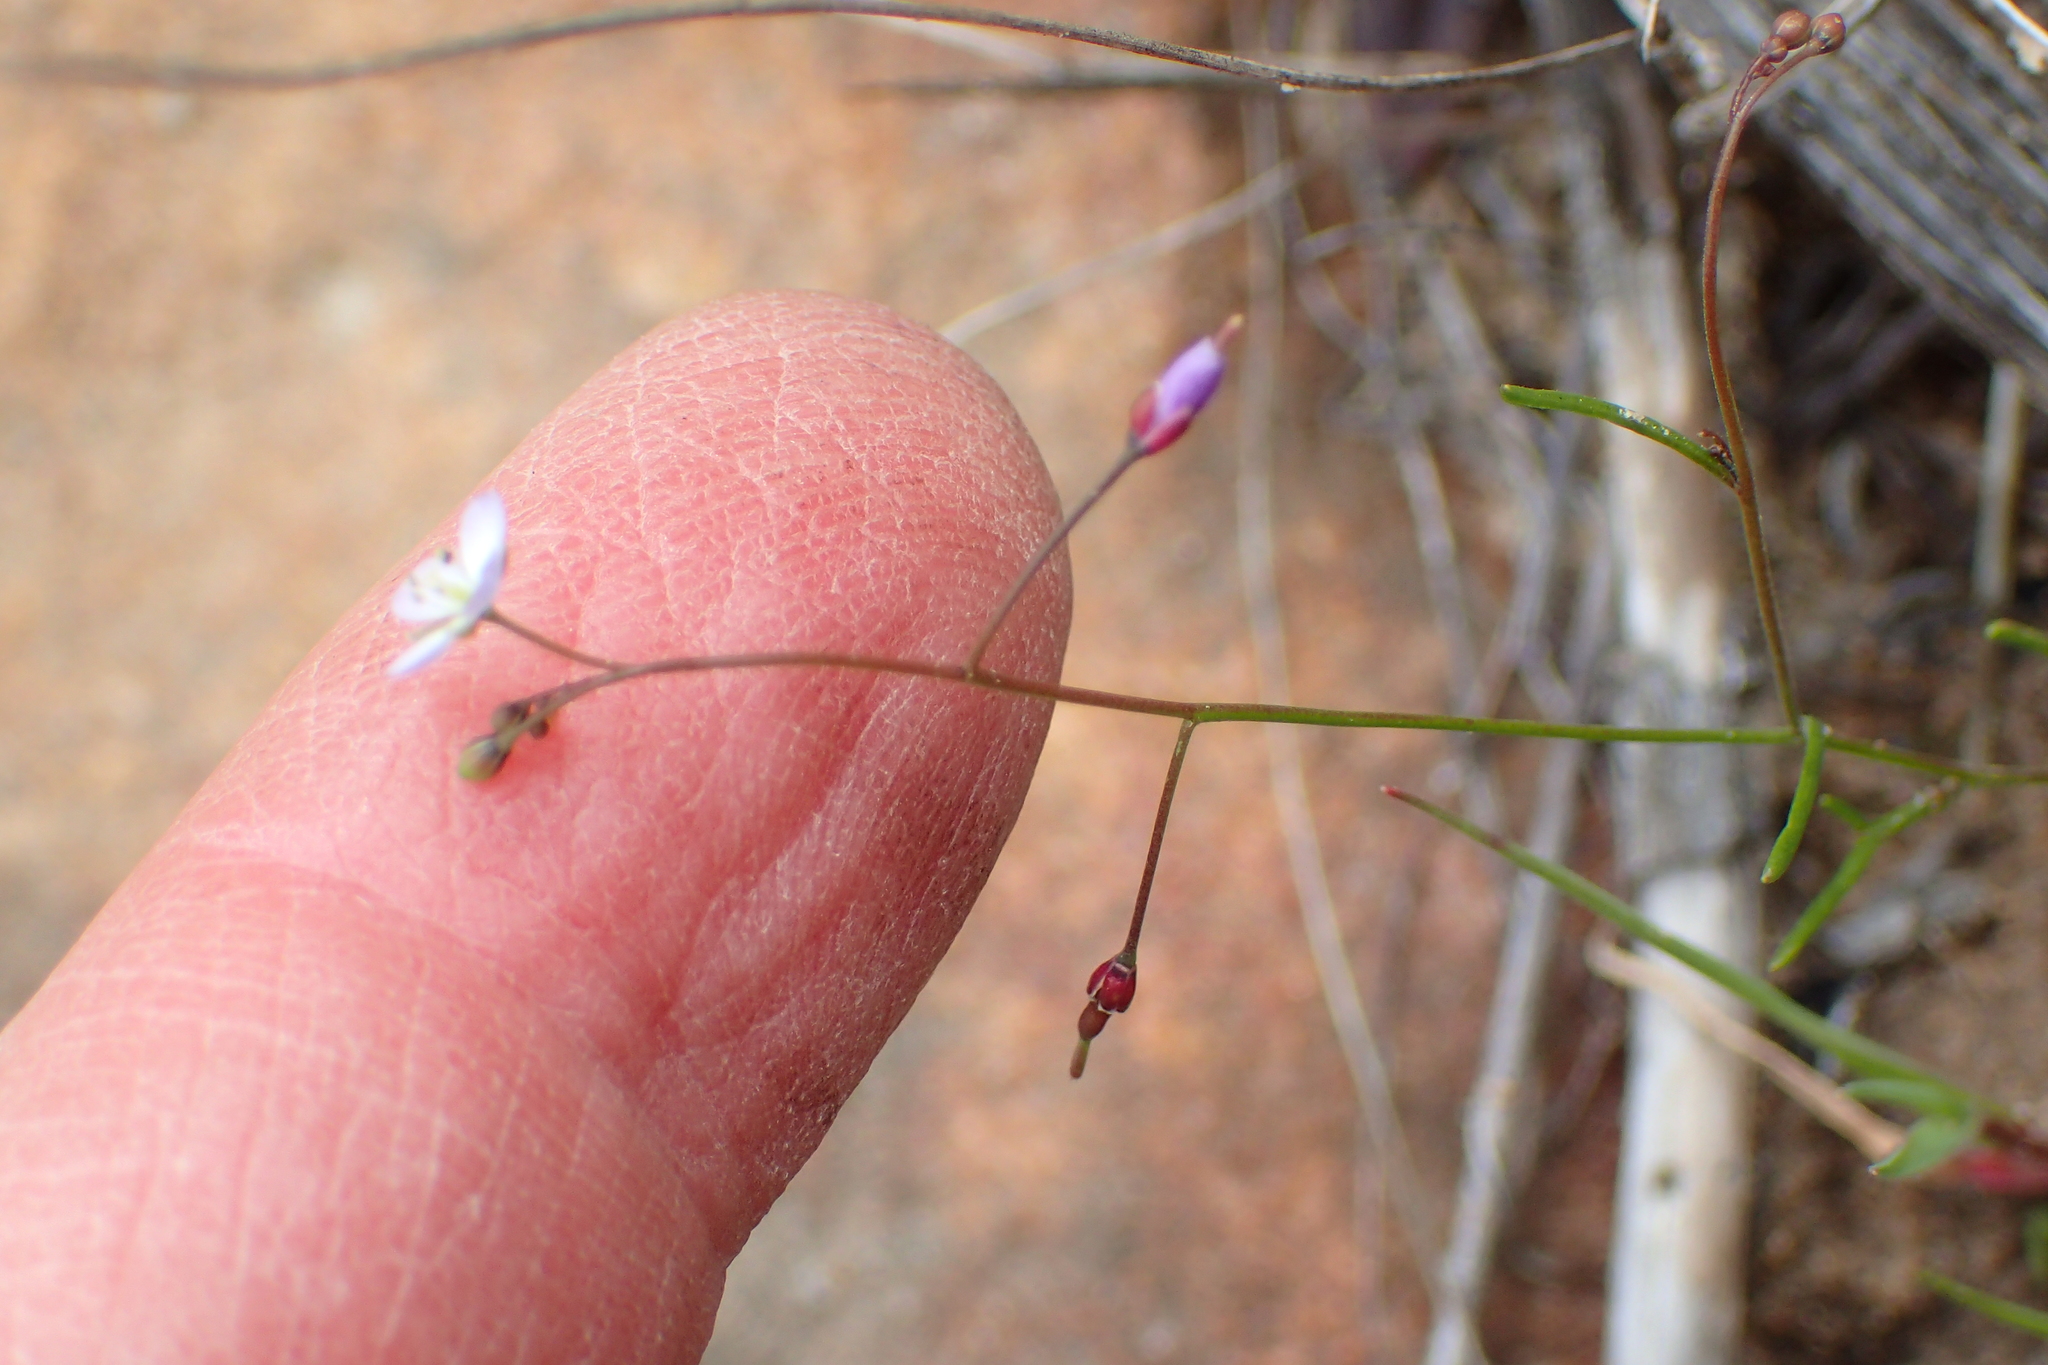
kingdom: Plantae
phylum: Tracheophyta
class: Magnoliopsida
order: Brassicales
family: Brassicaceae
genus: Heliophila
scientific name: Heliophila pinnata
